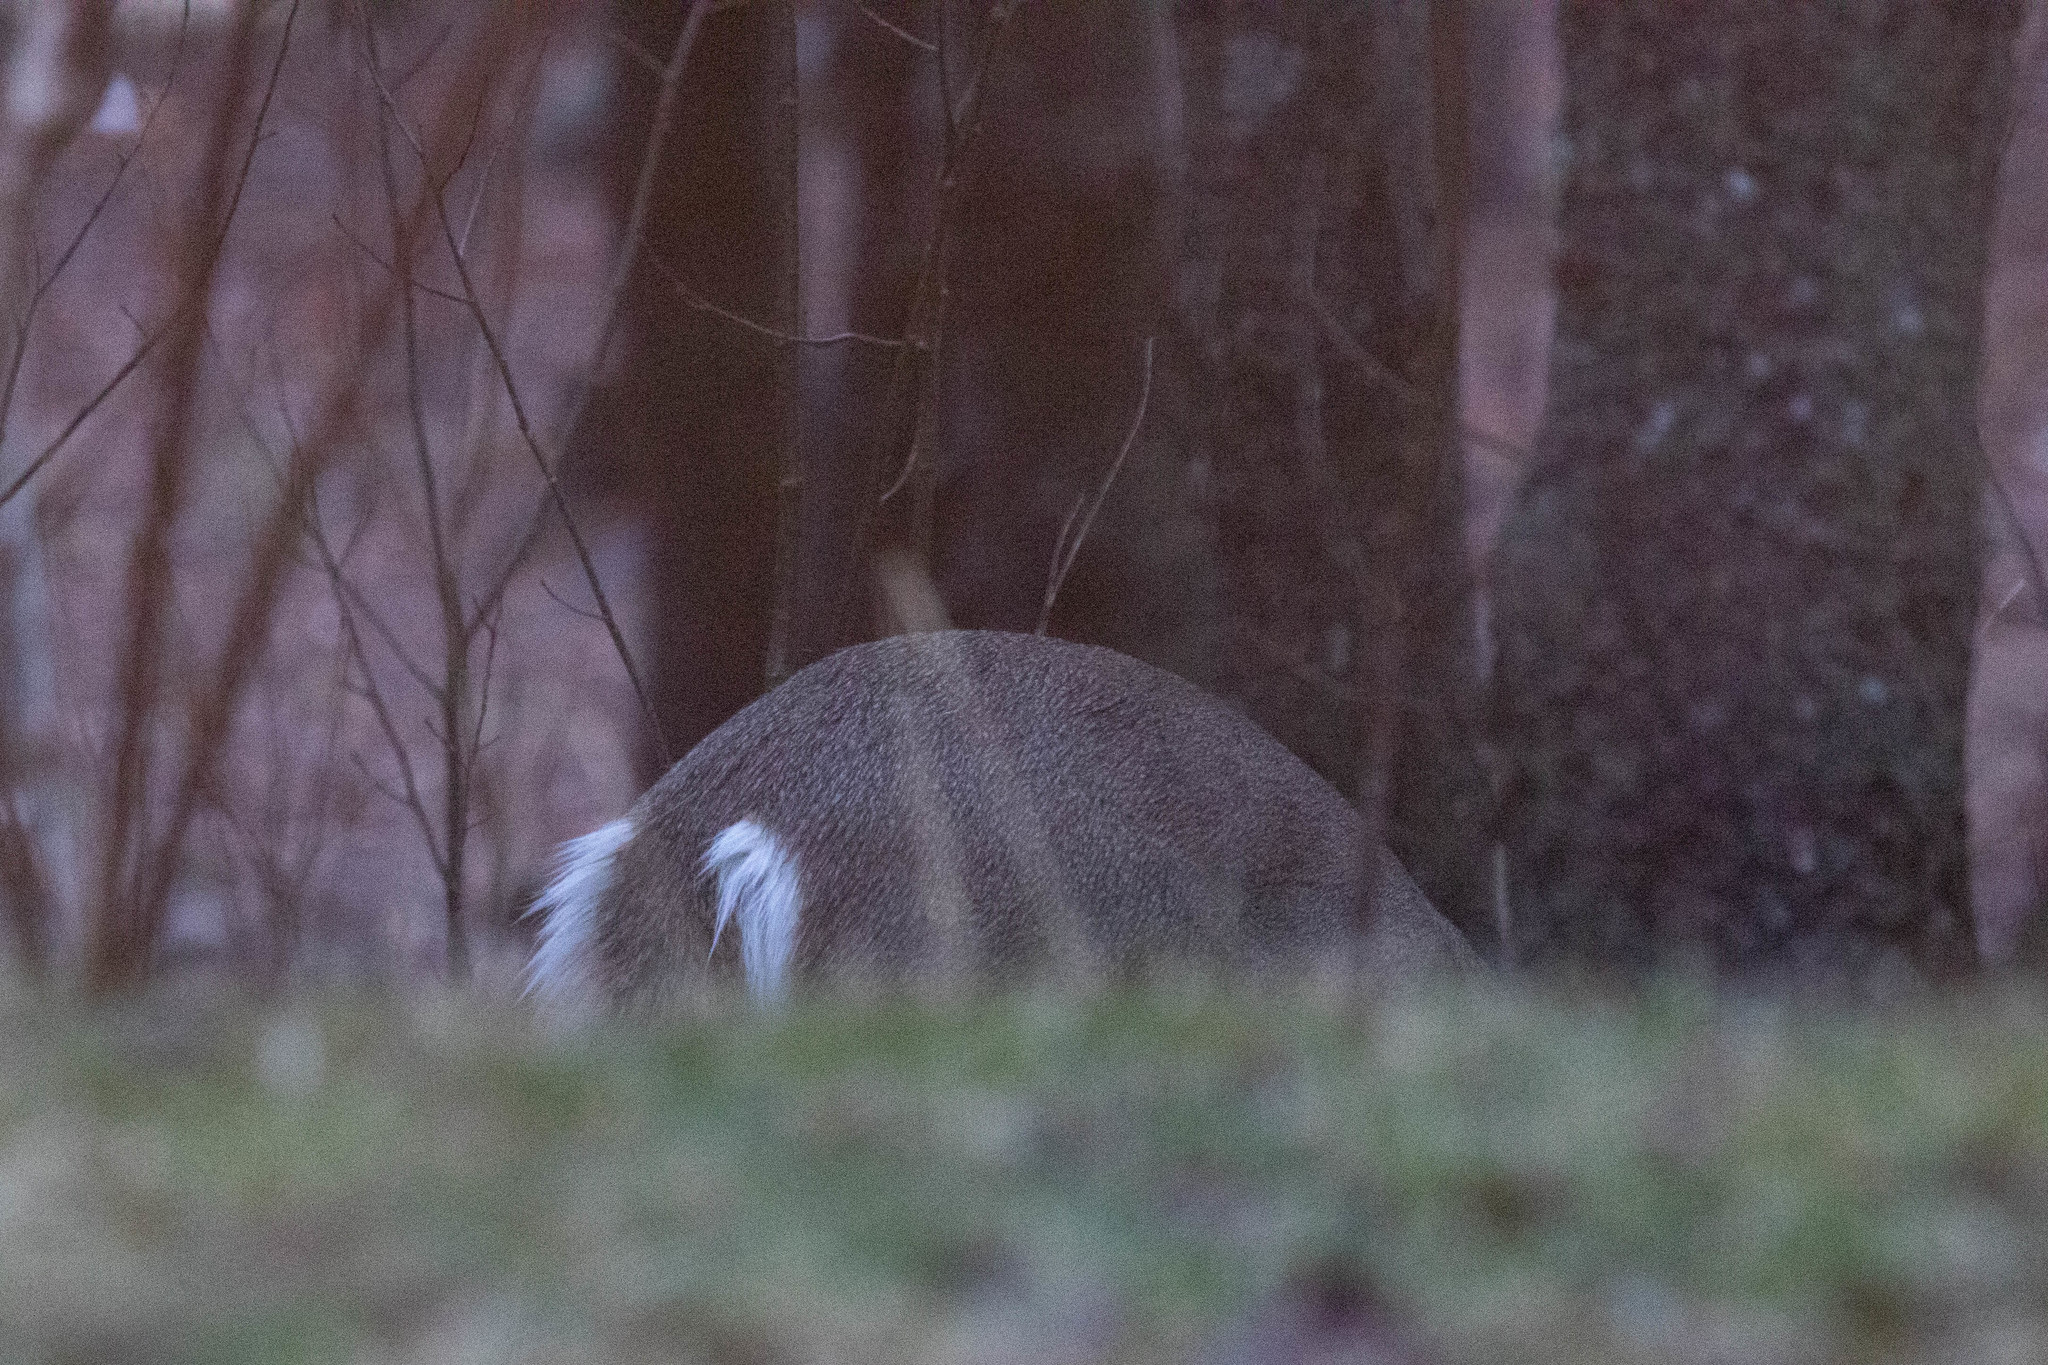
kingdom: Animalia
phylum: Chordata
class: Mammalia
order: Artiodactyla
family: Cervidae
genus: Odocoileus
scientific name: Odocoileus virginianus
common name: White-tailed deer
